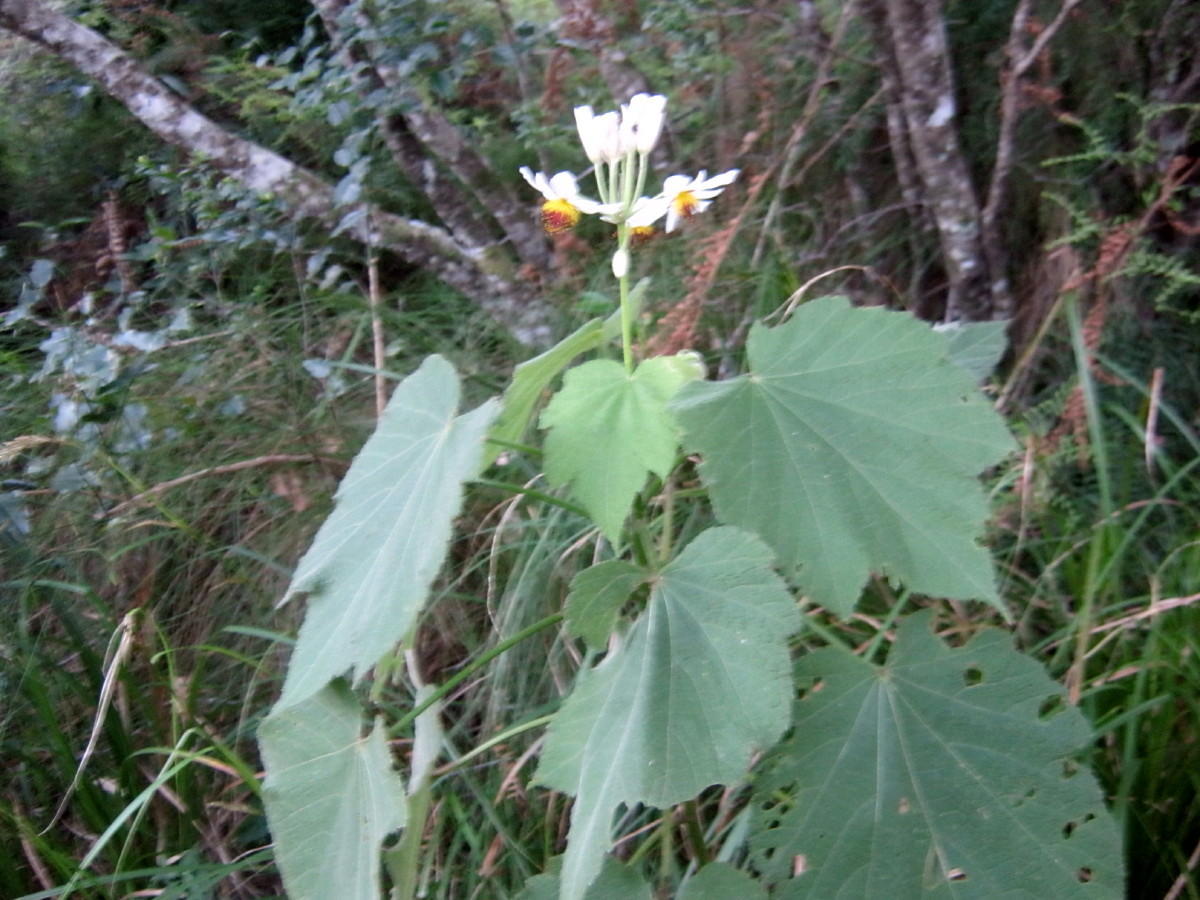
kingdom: Plantae
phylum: Tracheophyta
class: Magnoliopsida
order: Malvales
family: Malvaceae
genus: Sparrmannia
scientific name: Sparrmannia africana
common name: African-hemp
